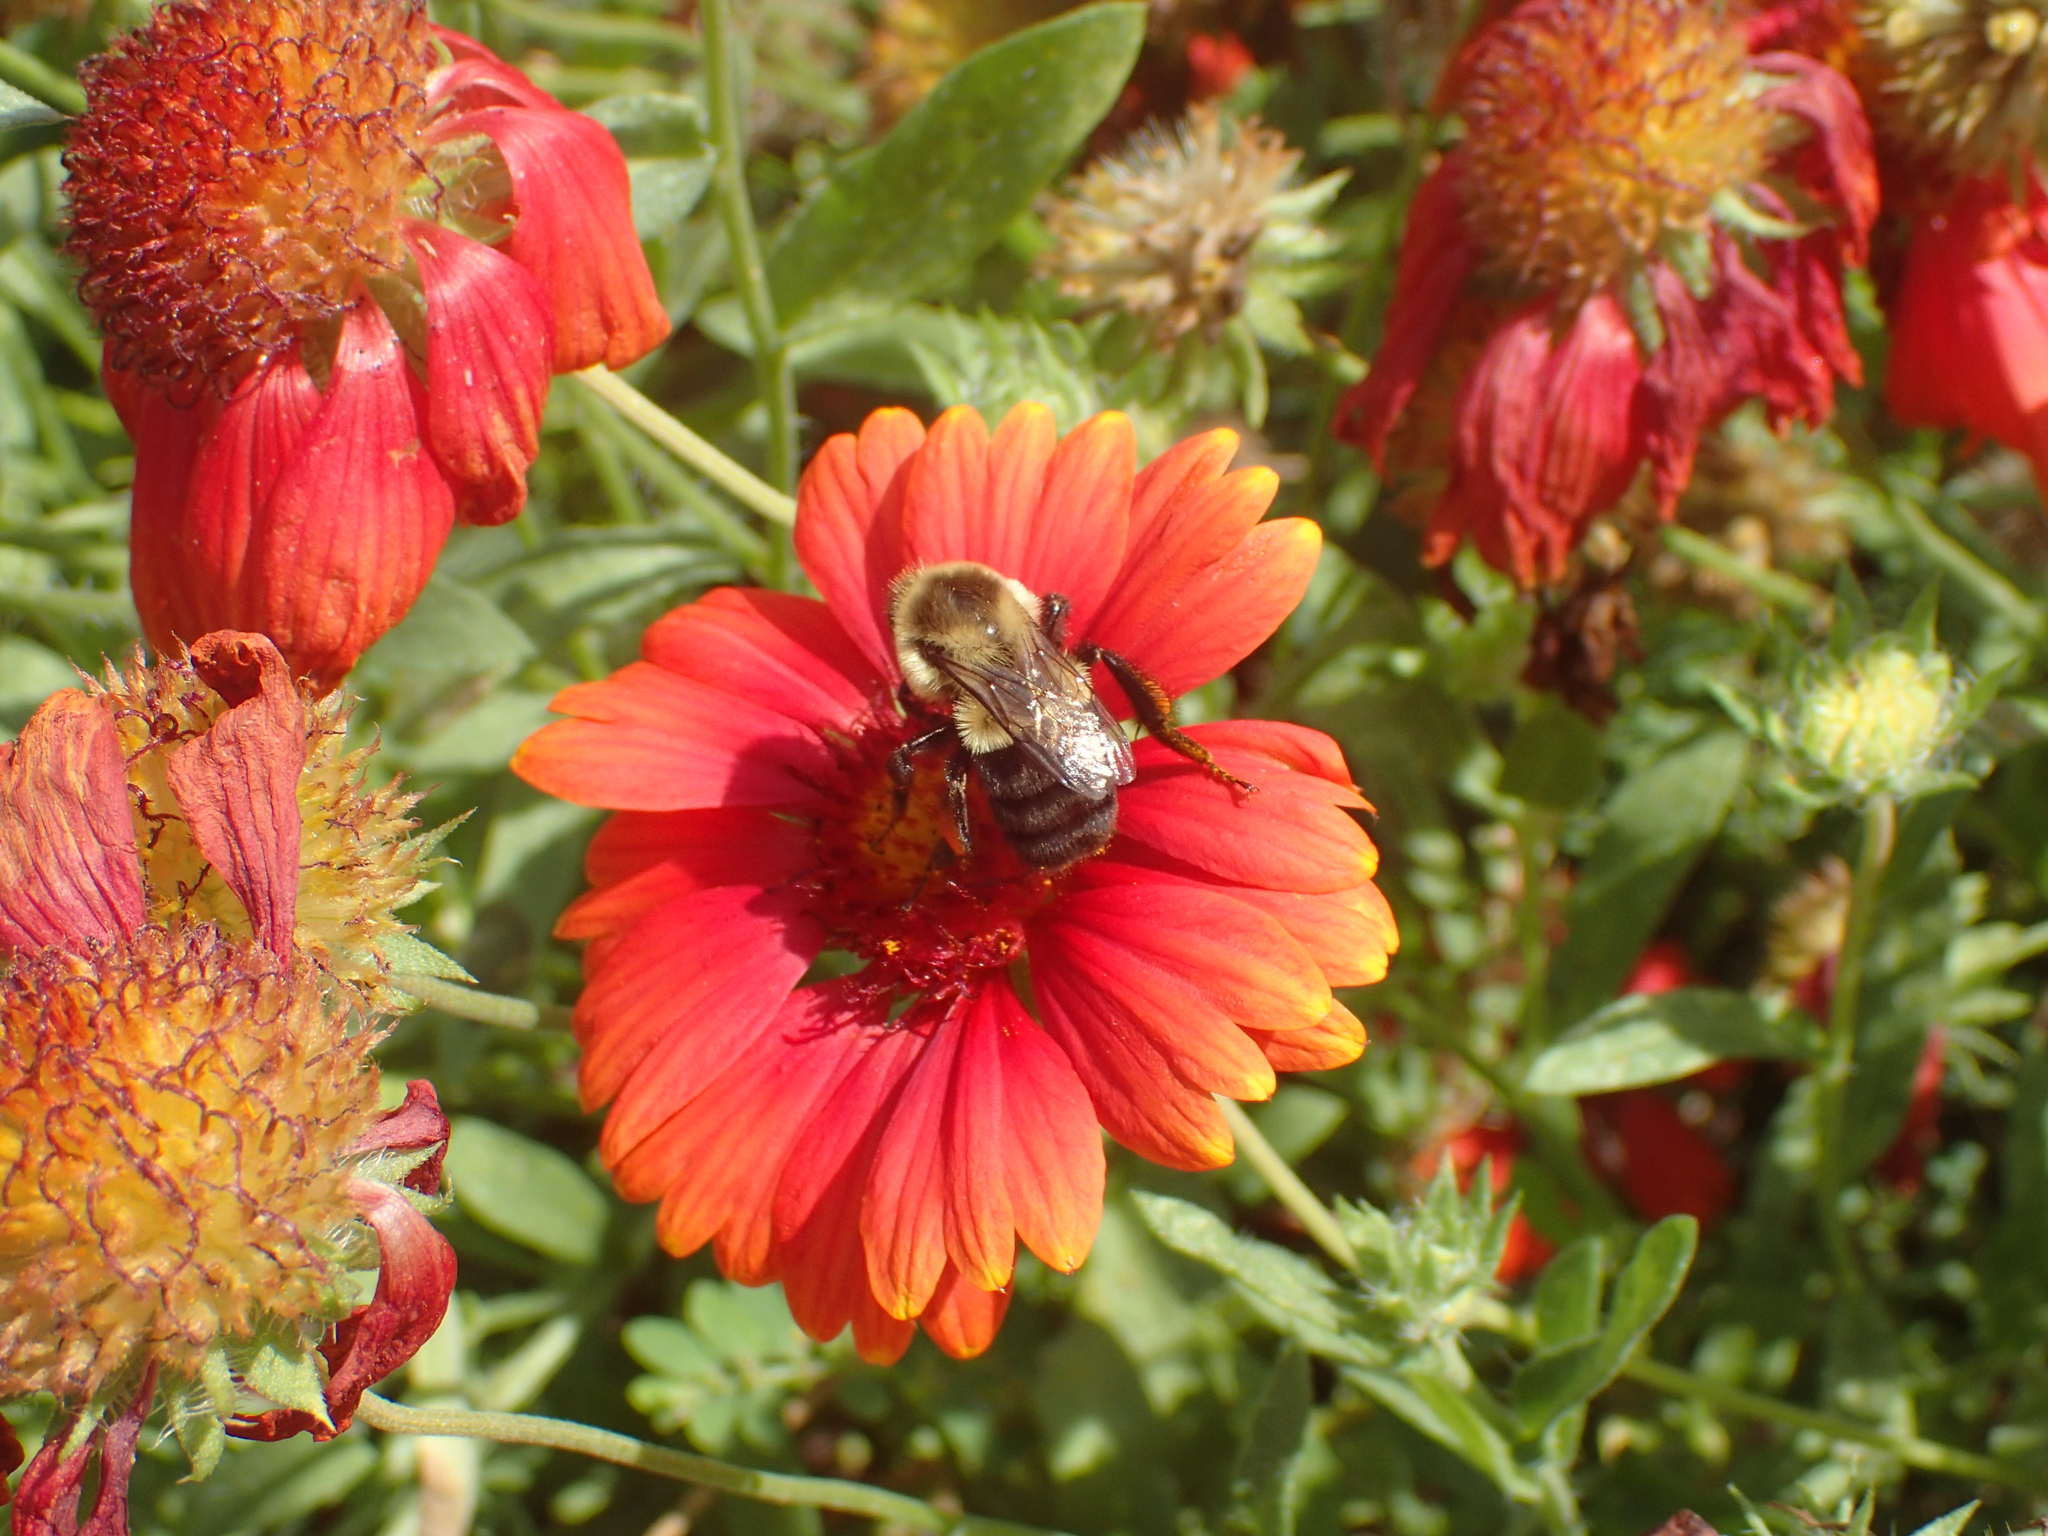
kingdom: Animalia
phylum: Arthropoda
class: Insecta
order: Hymenoptera
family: Apidae
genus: Bombus
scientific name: Bombus impatiens
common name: Common eastern bumble bee
